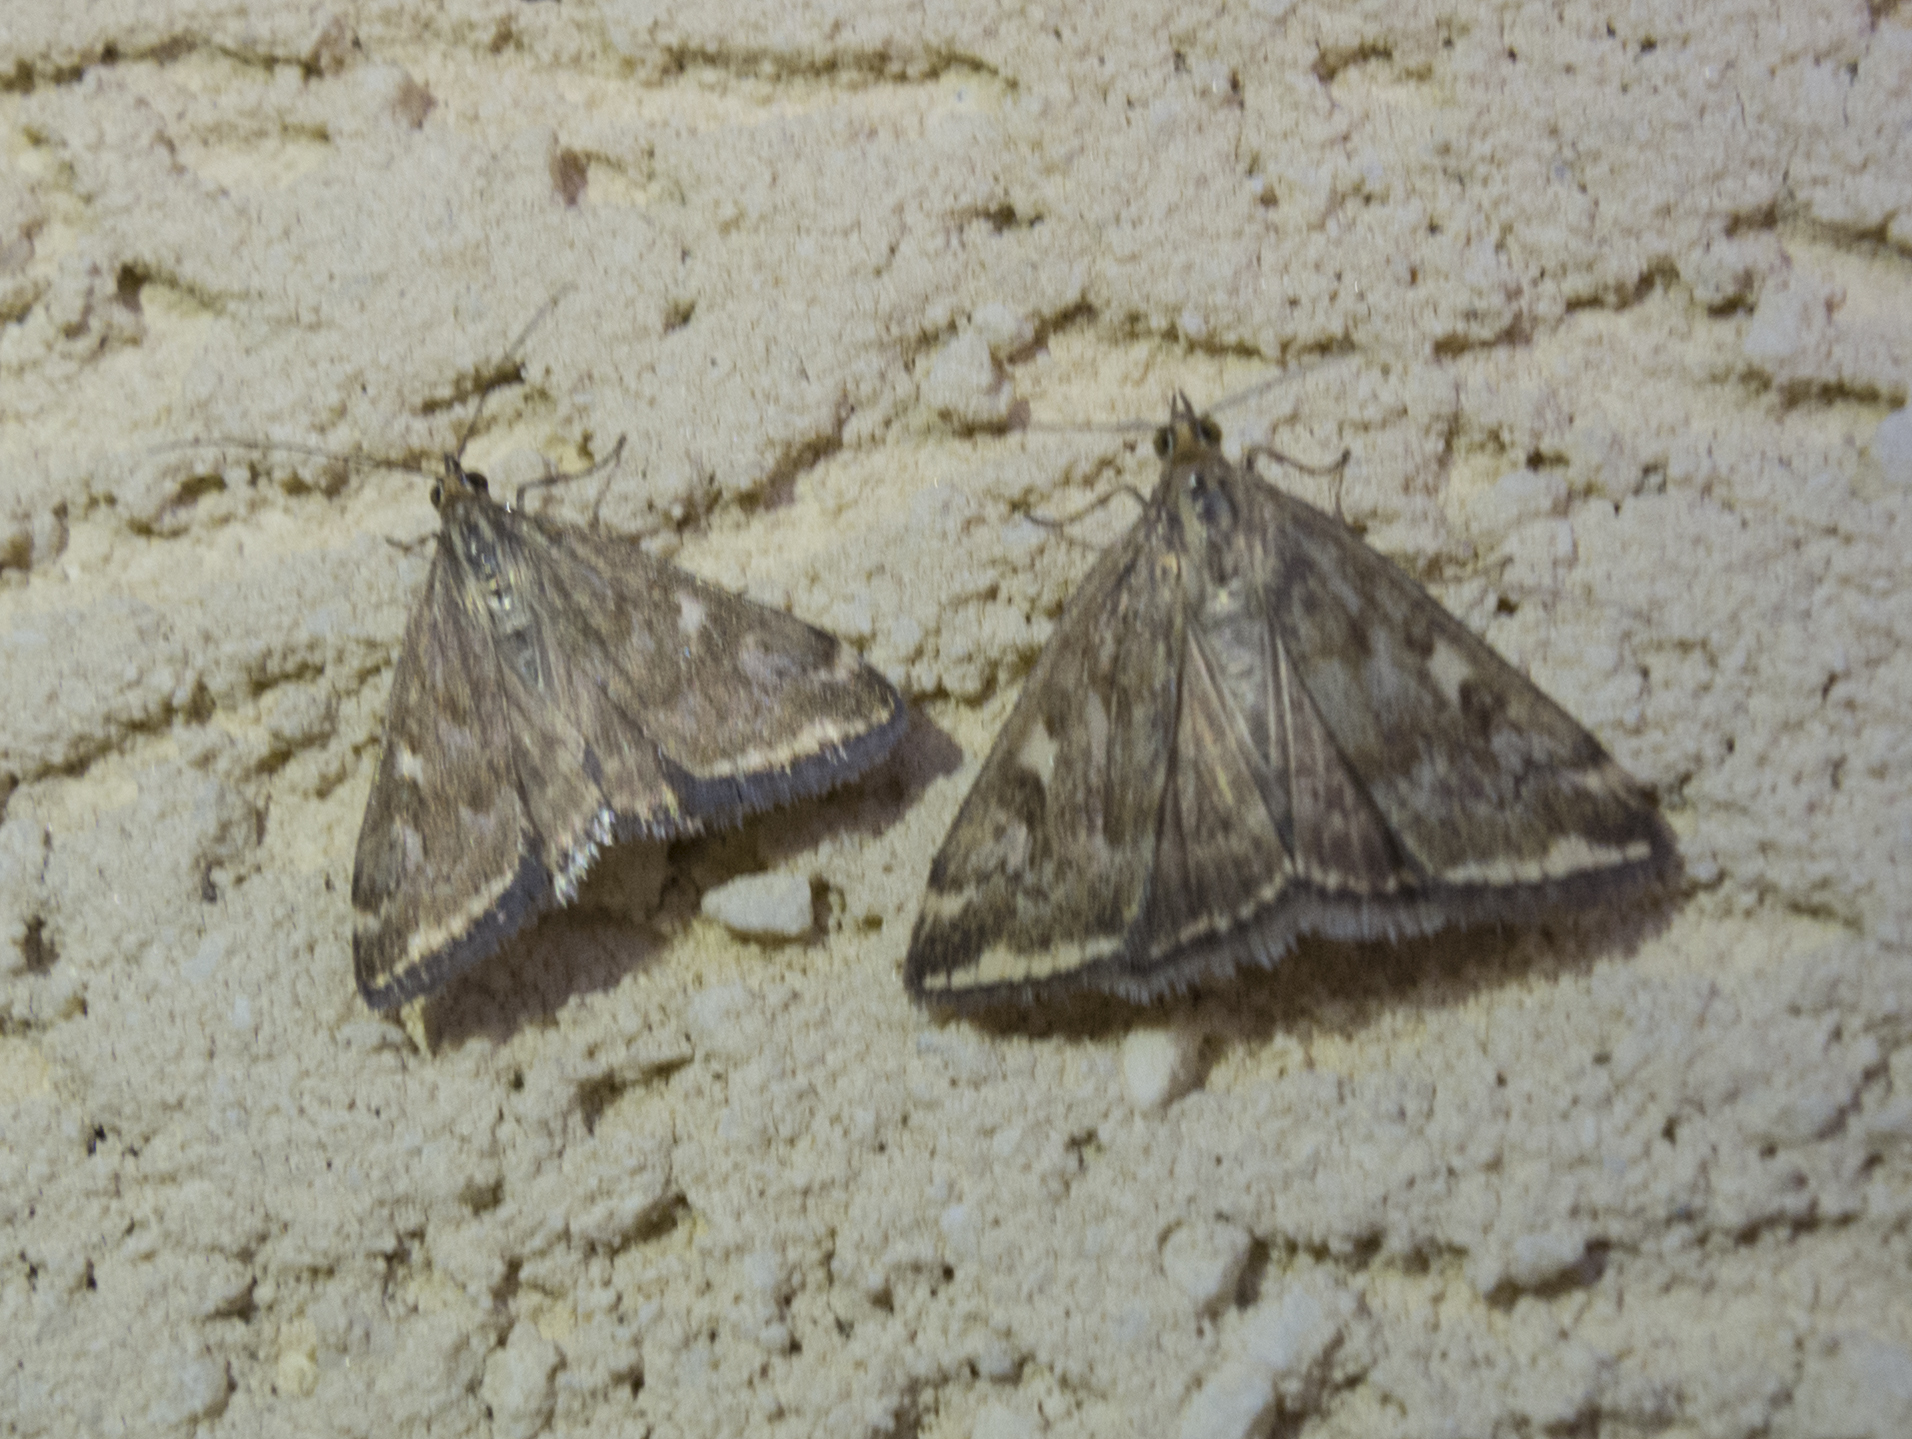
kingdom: Animalia
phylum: Arthropoda
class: Insecta
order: Lepidoptera
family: Crambidae
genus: Loxostege
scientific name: Loxostege sticticalis
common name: Crambid moth
